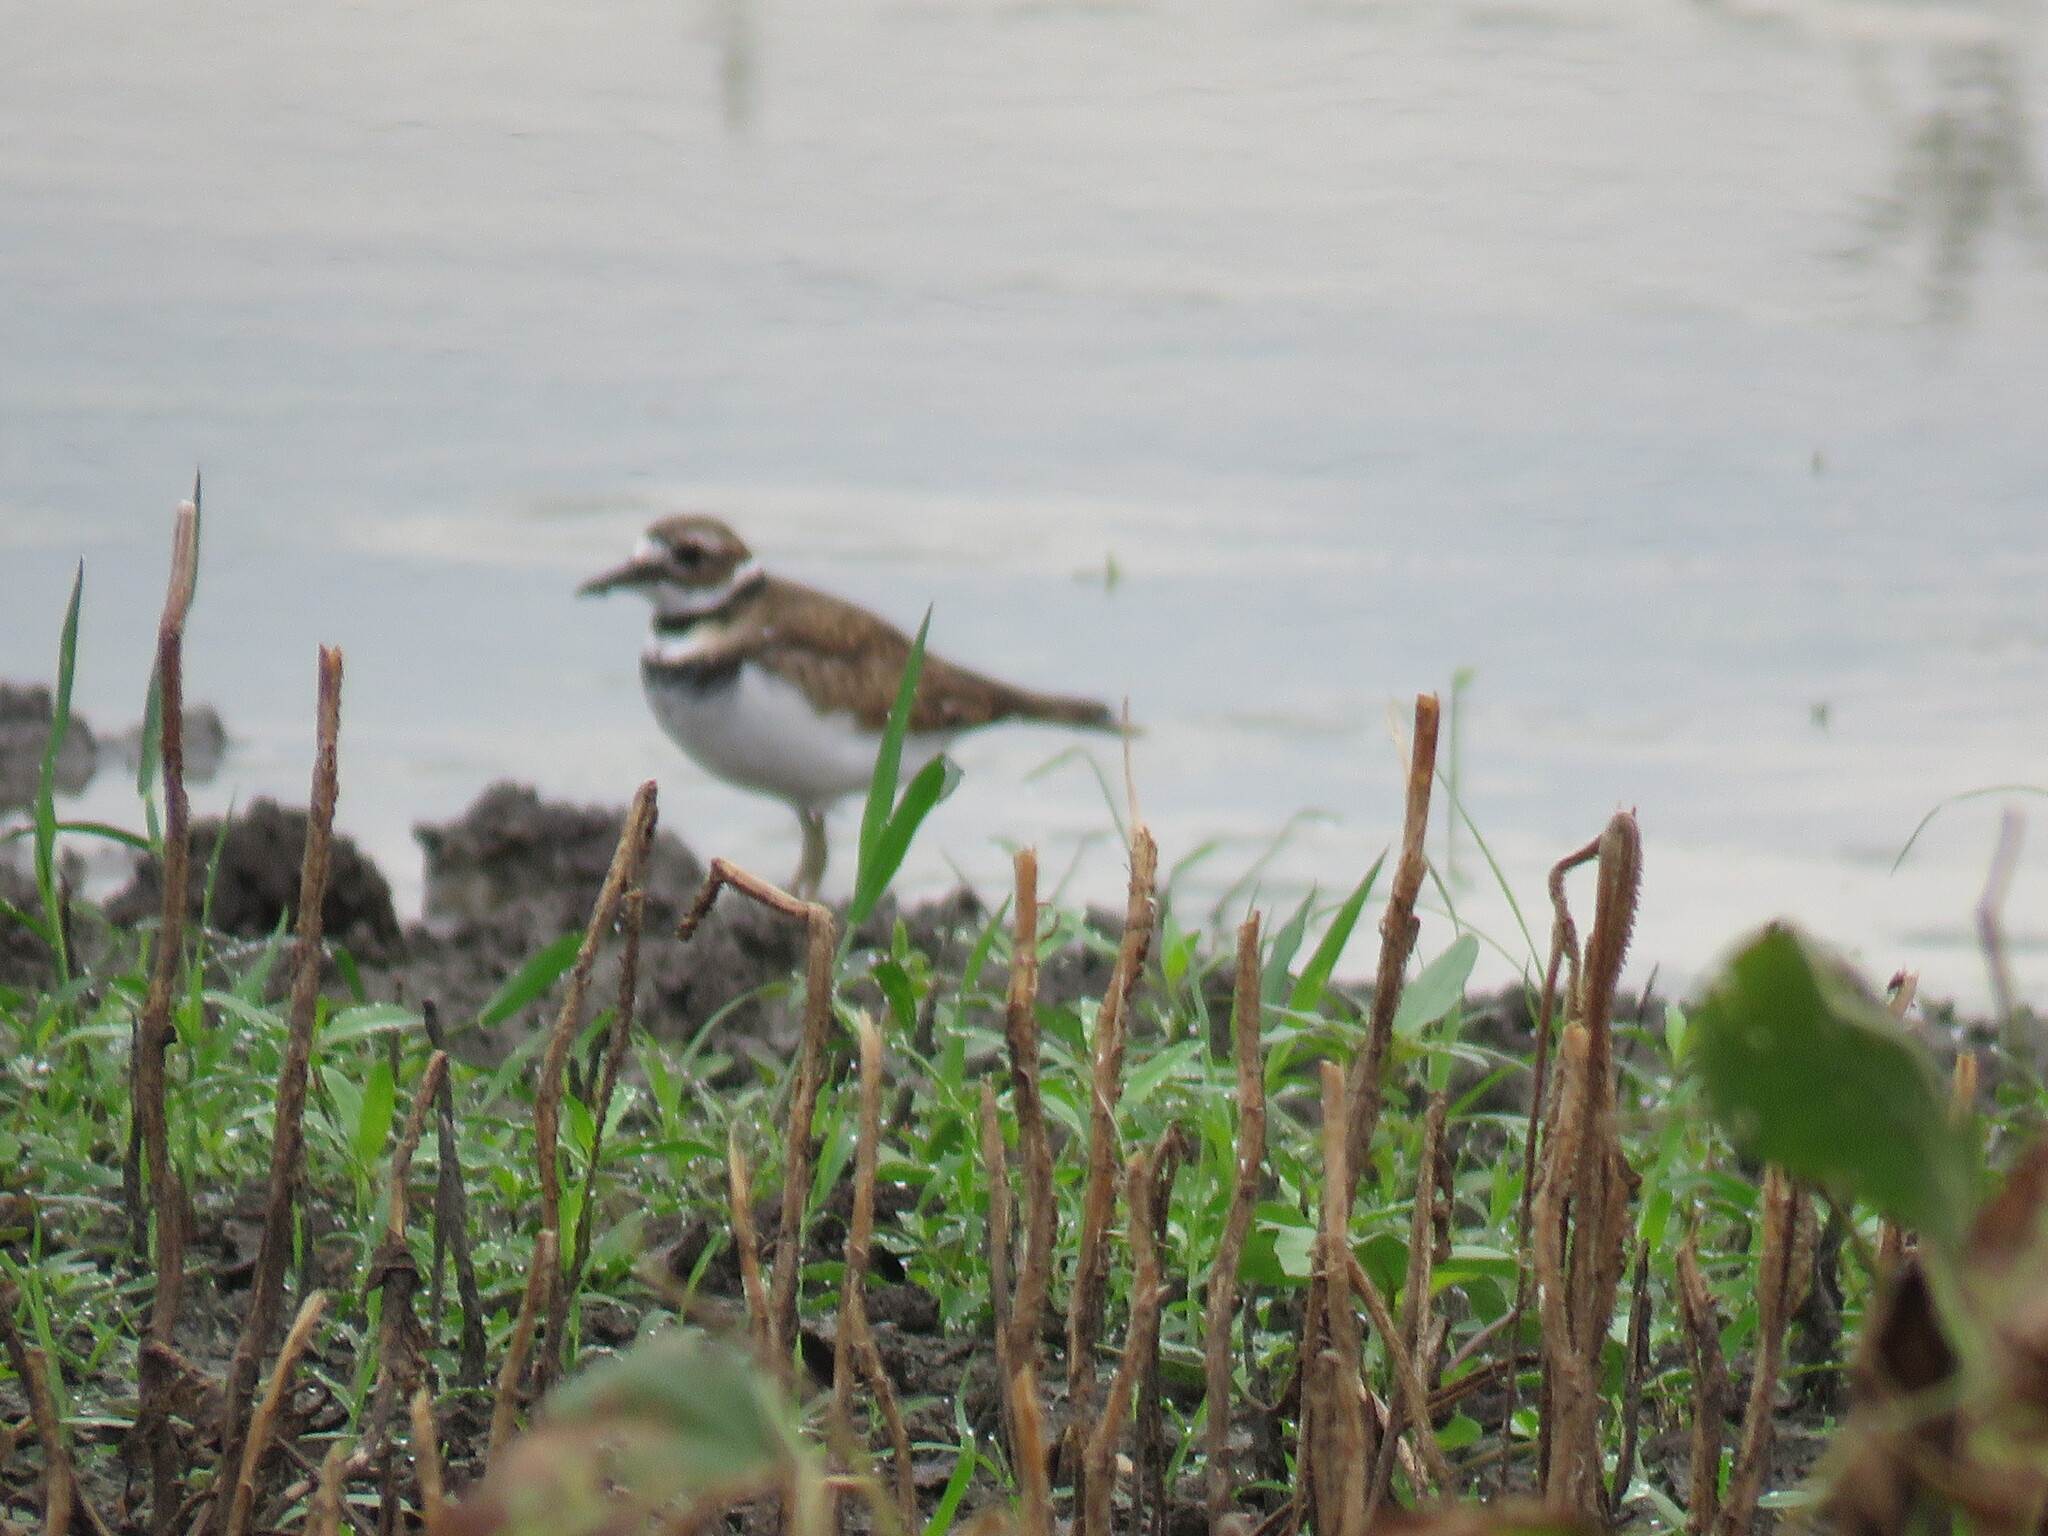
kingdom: Animalia
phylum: Chordata
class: Aves
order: Charadriiformes
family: Charadriidae
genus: Charadrius
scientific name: Charadrius vociferus
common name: Killdeer
